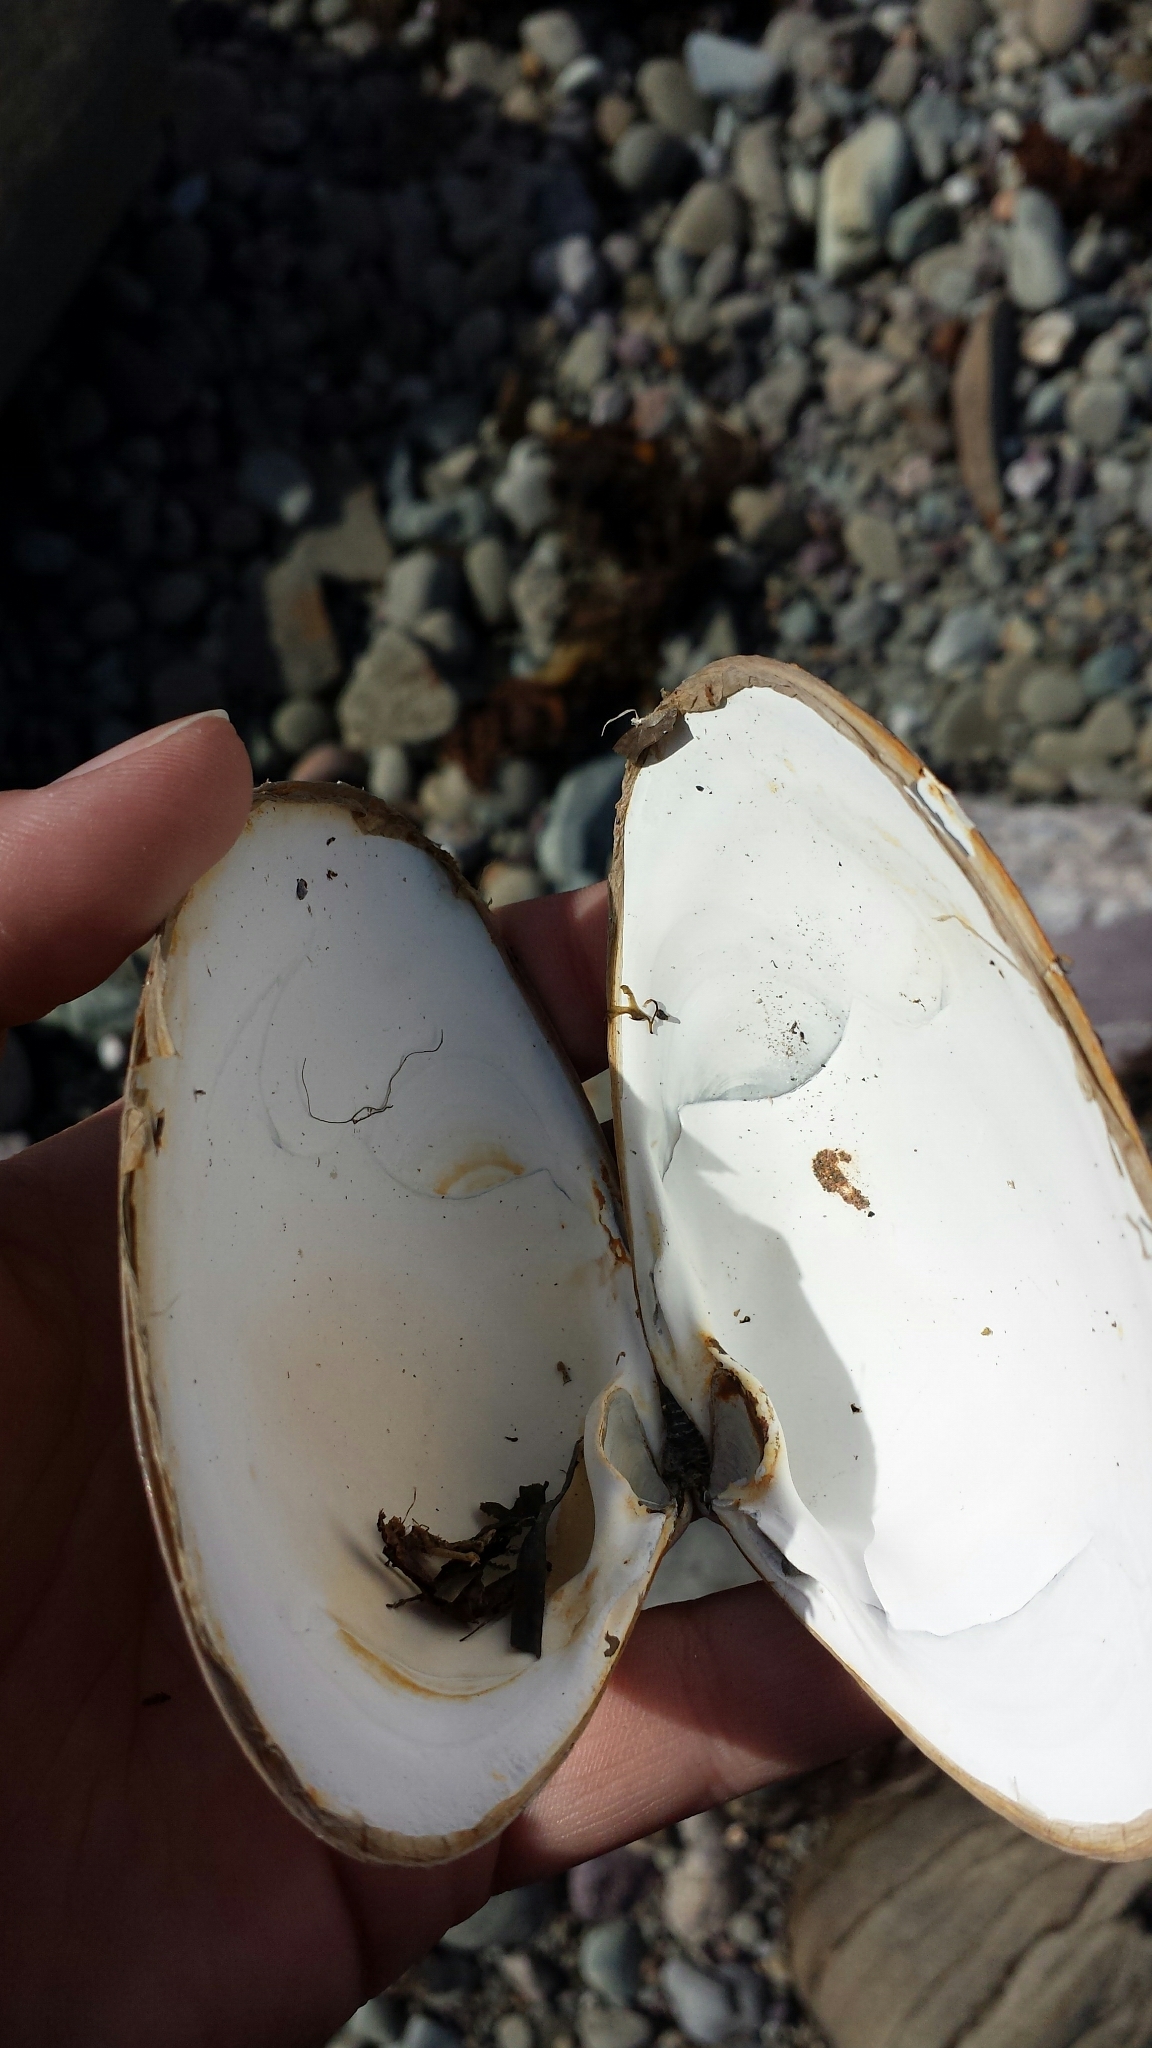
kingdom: Animalia
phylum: Mollusca
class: Bivalvia
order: Venerida
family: Mactridae
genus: Spisula
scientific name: Spisula solidissima
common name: Atlantic surf clam
